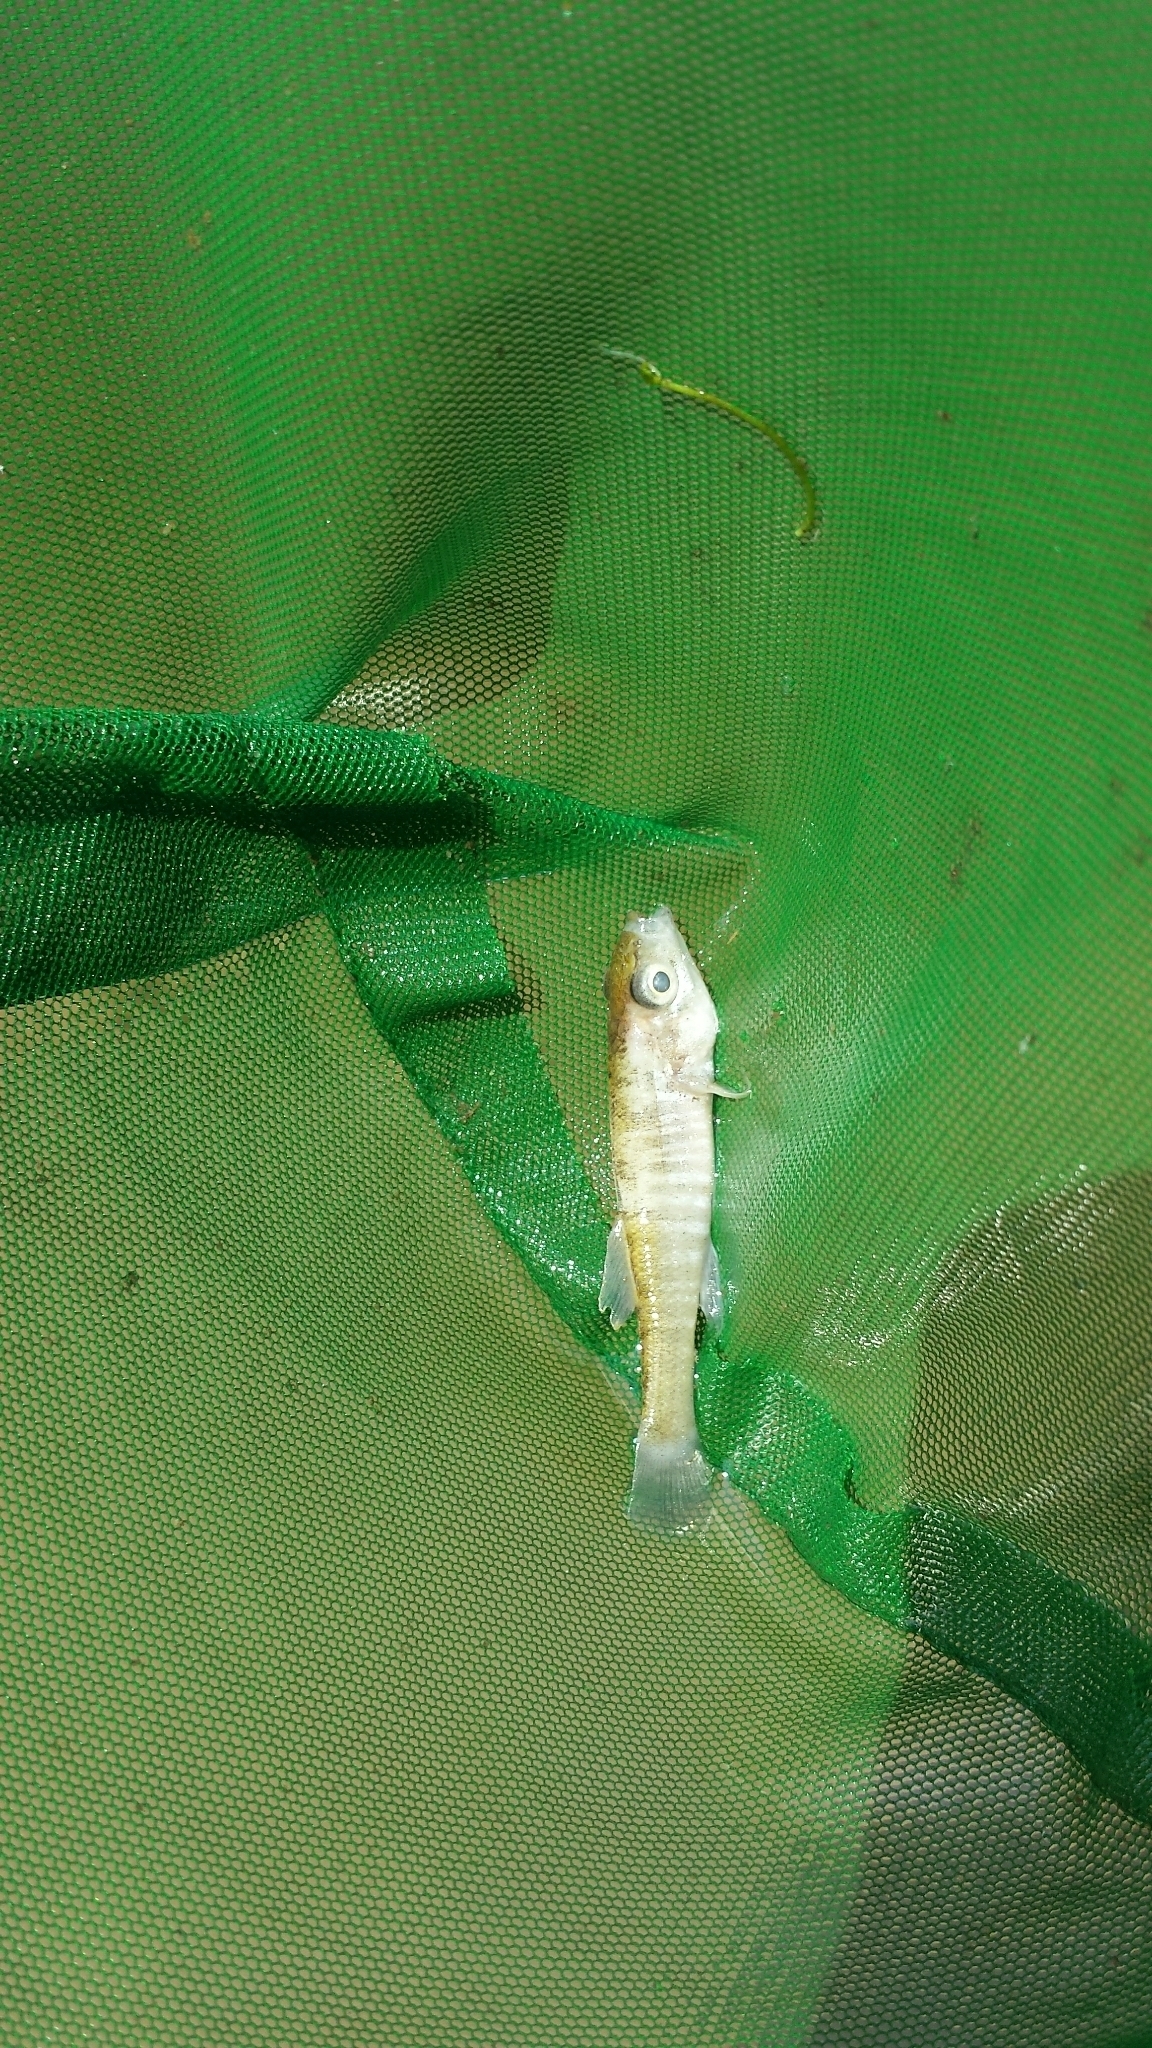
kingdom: Animalia
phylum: Chordata
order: Cyprinodontiformes
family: Fundulidae
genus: Fundulus
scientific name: Fundulus diaphanus
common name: Banded killifish
